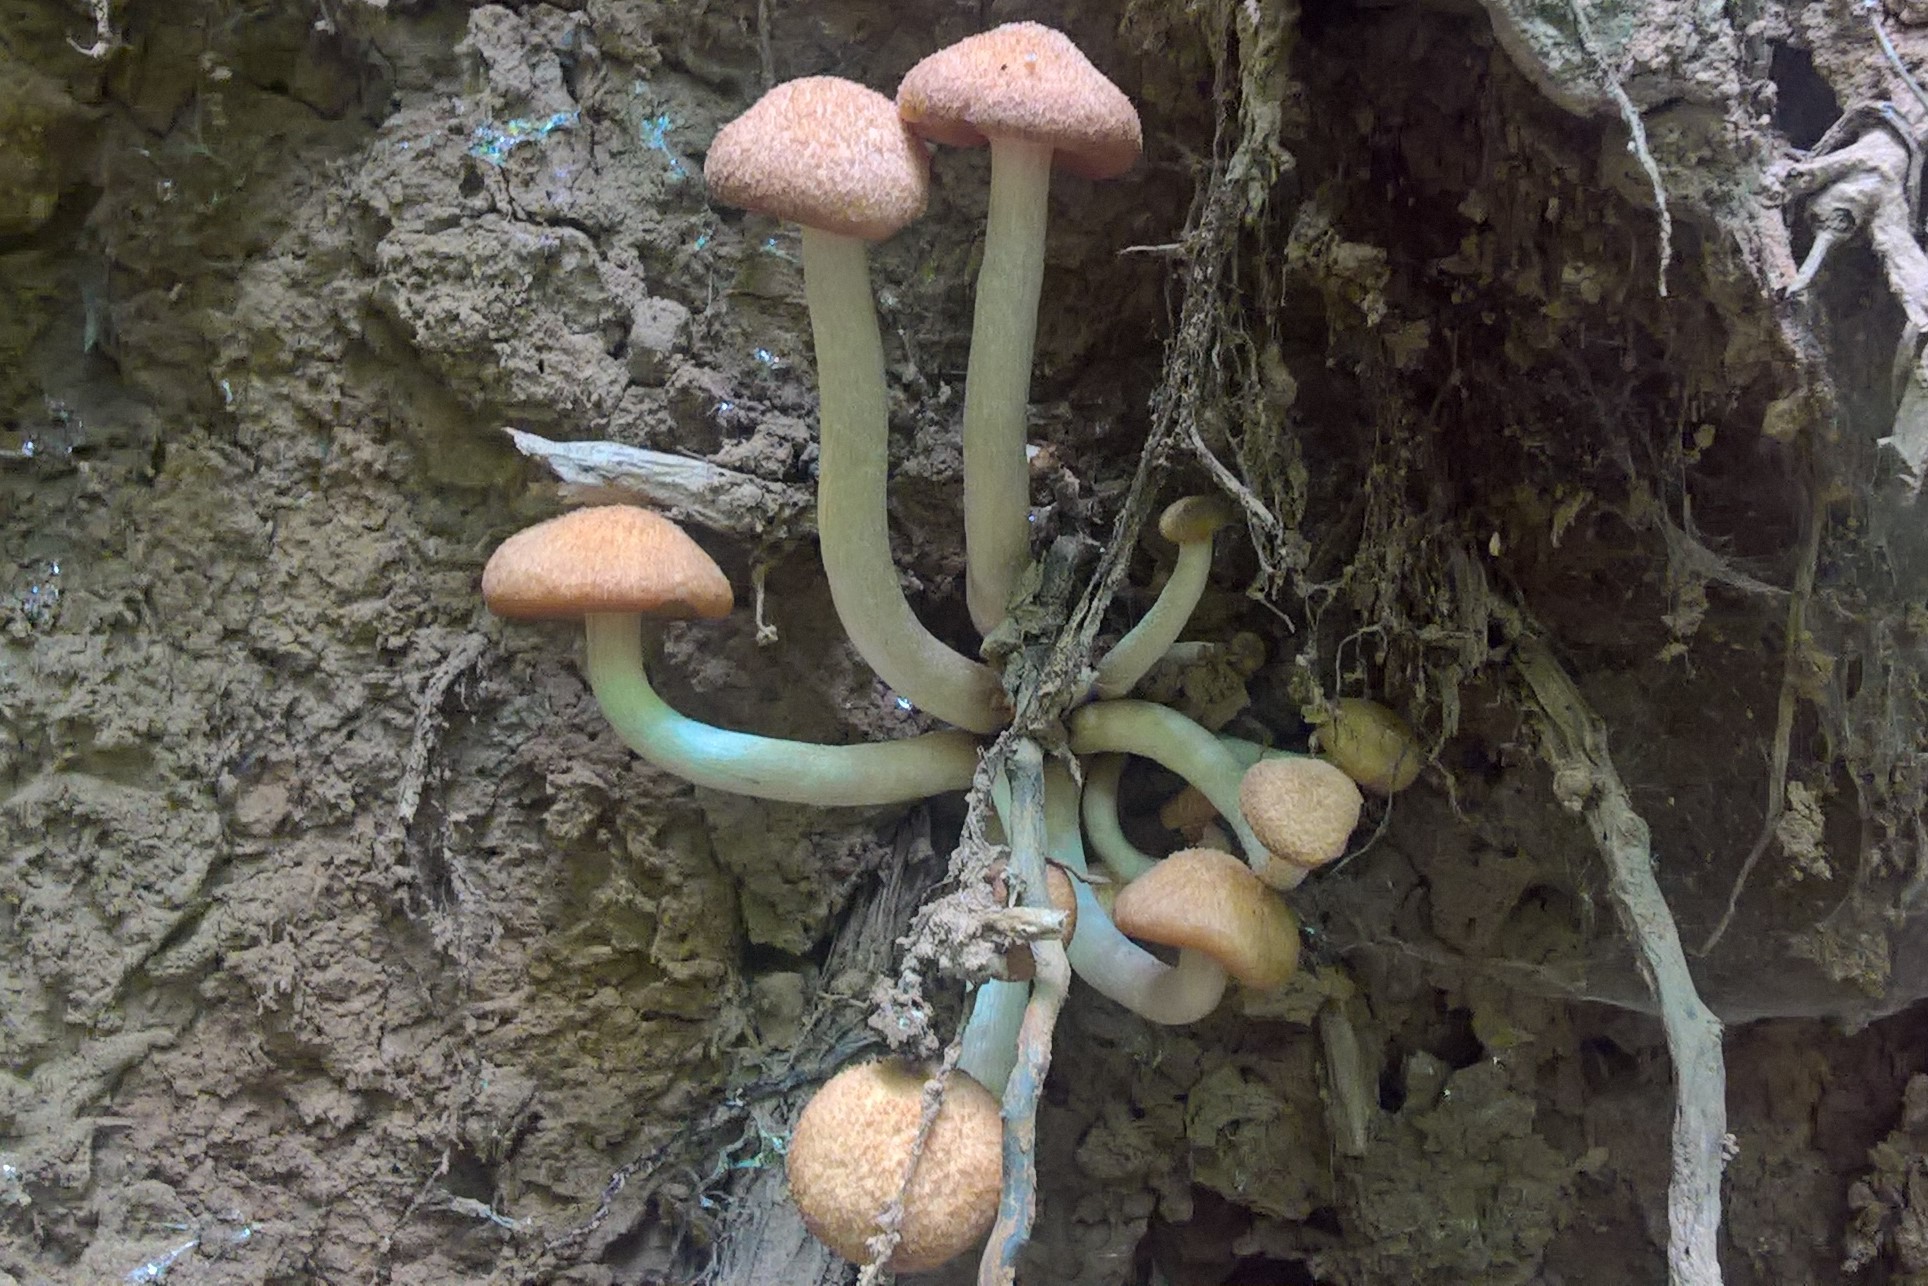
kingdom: Fungi
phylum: Basidiomycota
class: Agaricomycetes
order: Agaricales
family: Physalacriaceae
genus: Desarmillaria
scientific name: Desarmillaria caespitosa
